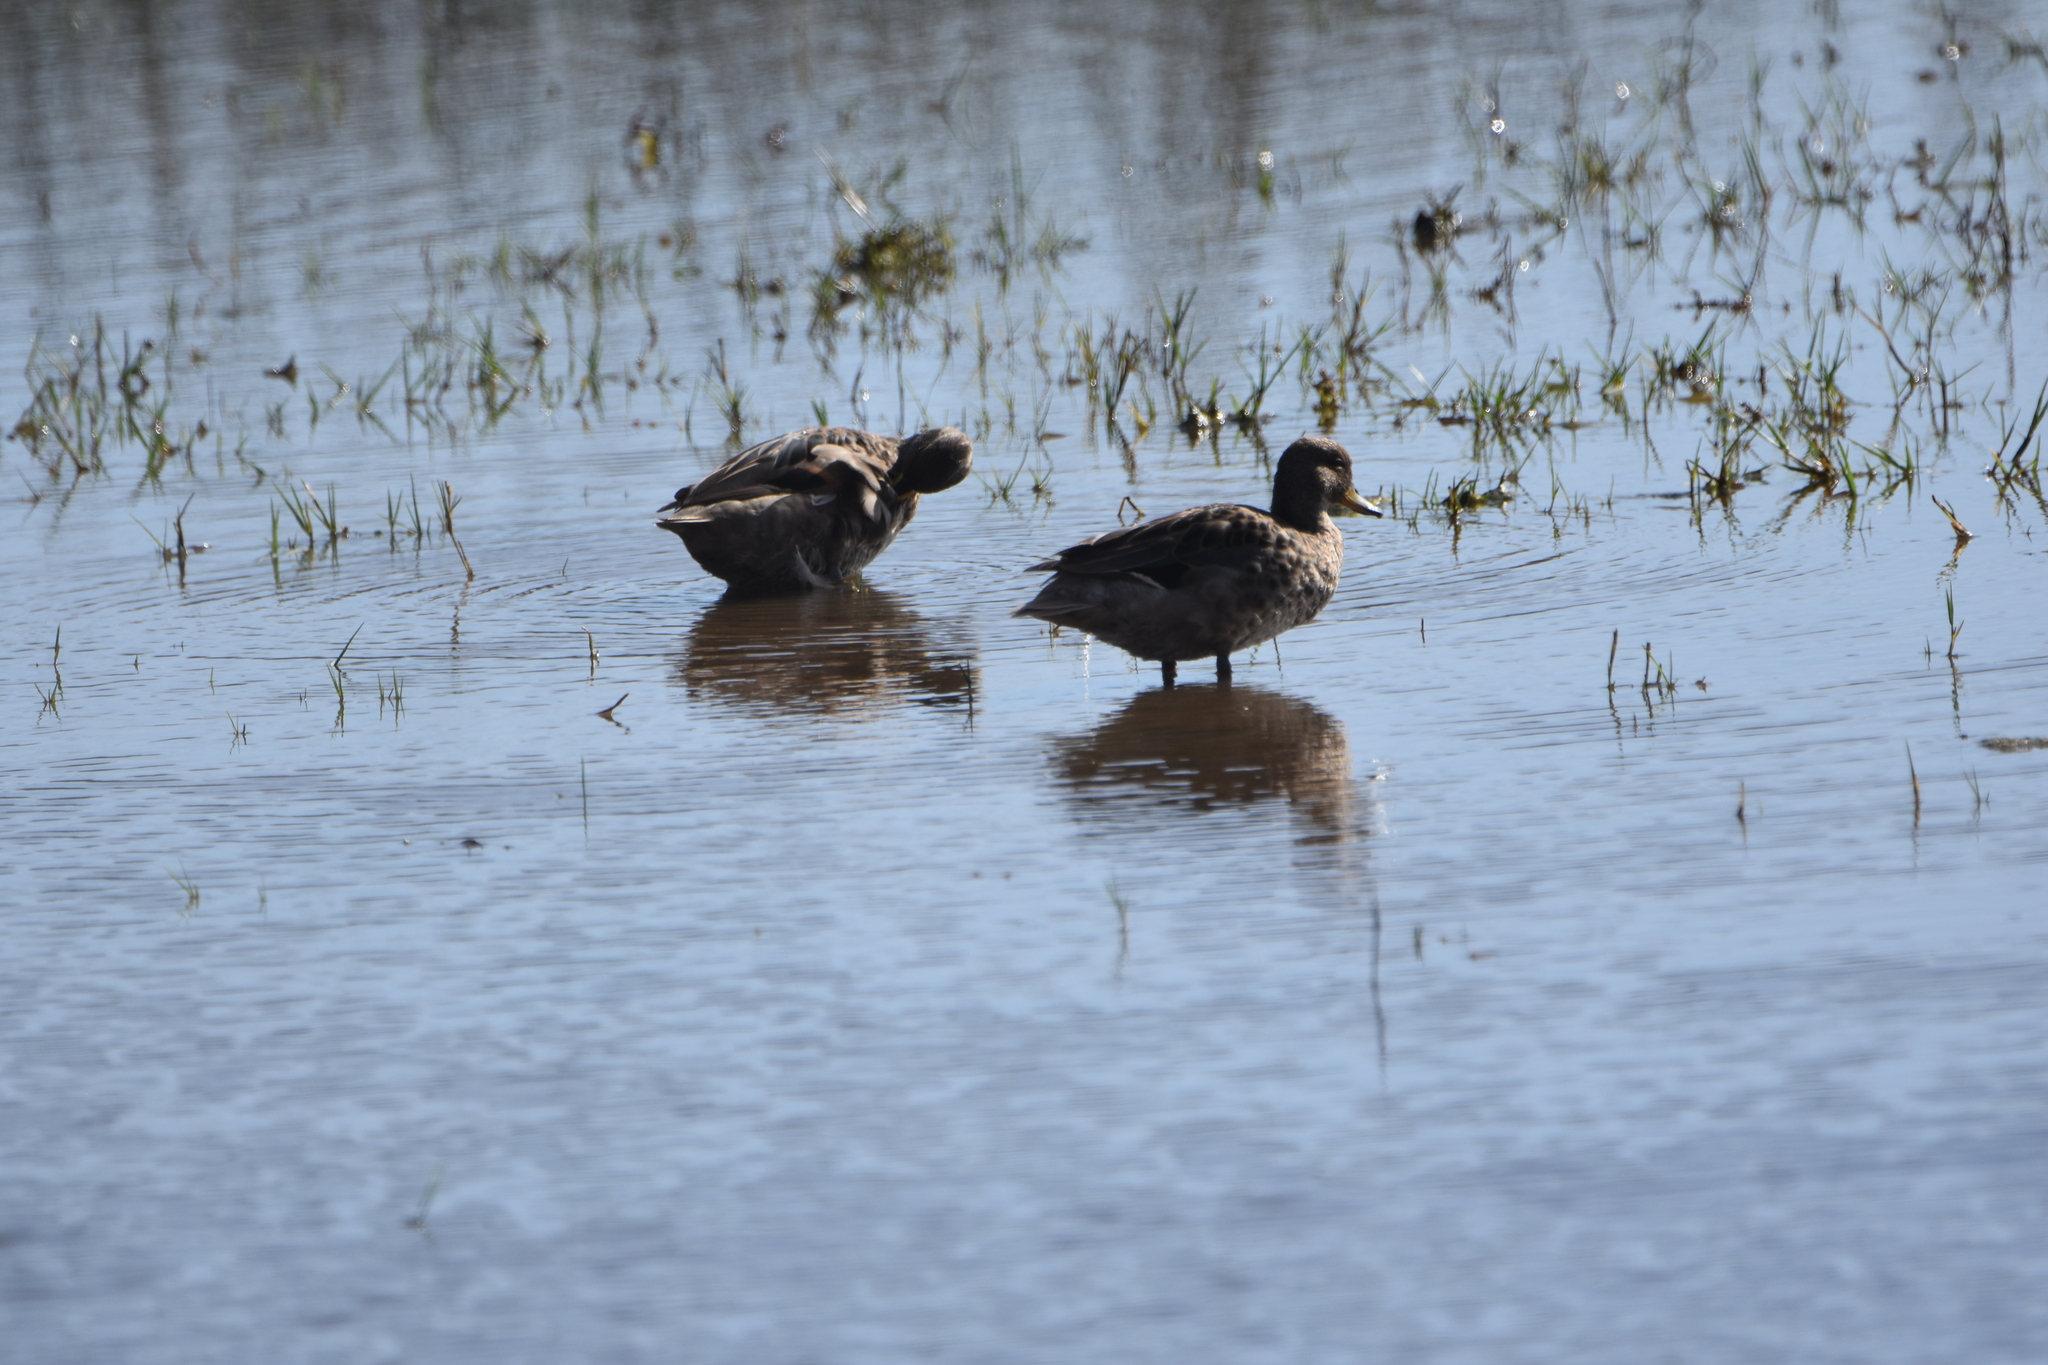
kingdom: Animalia
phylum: Chordata
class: Aves
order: Anseriformes
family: Anatidae
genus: Anas
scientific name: Anas flavirostris
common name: Yellow-billed teal
